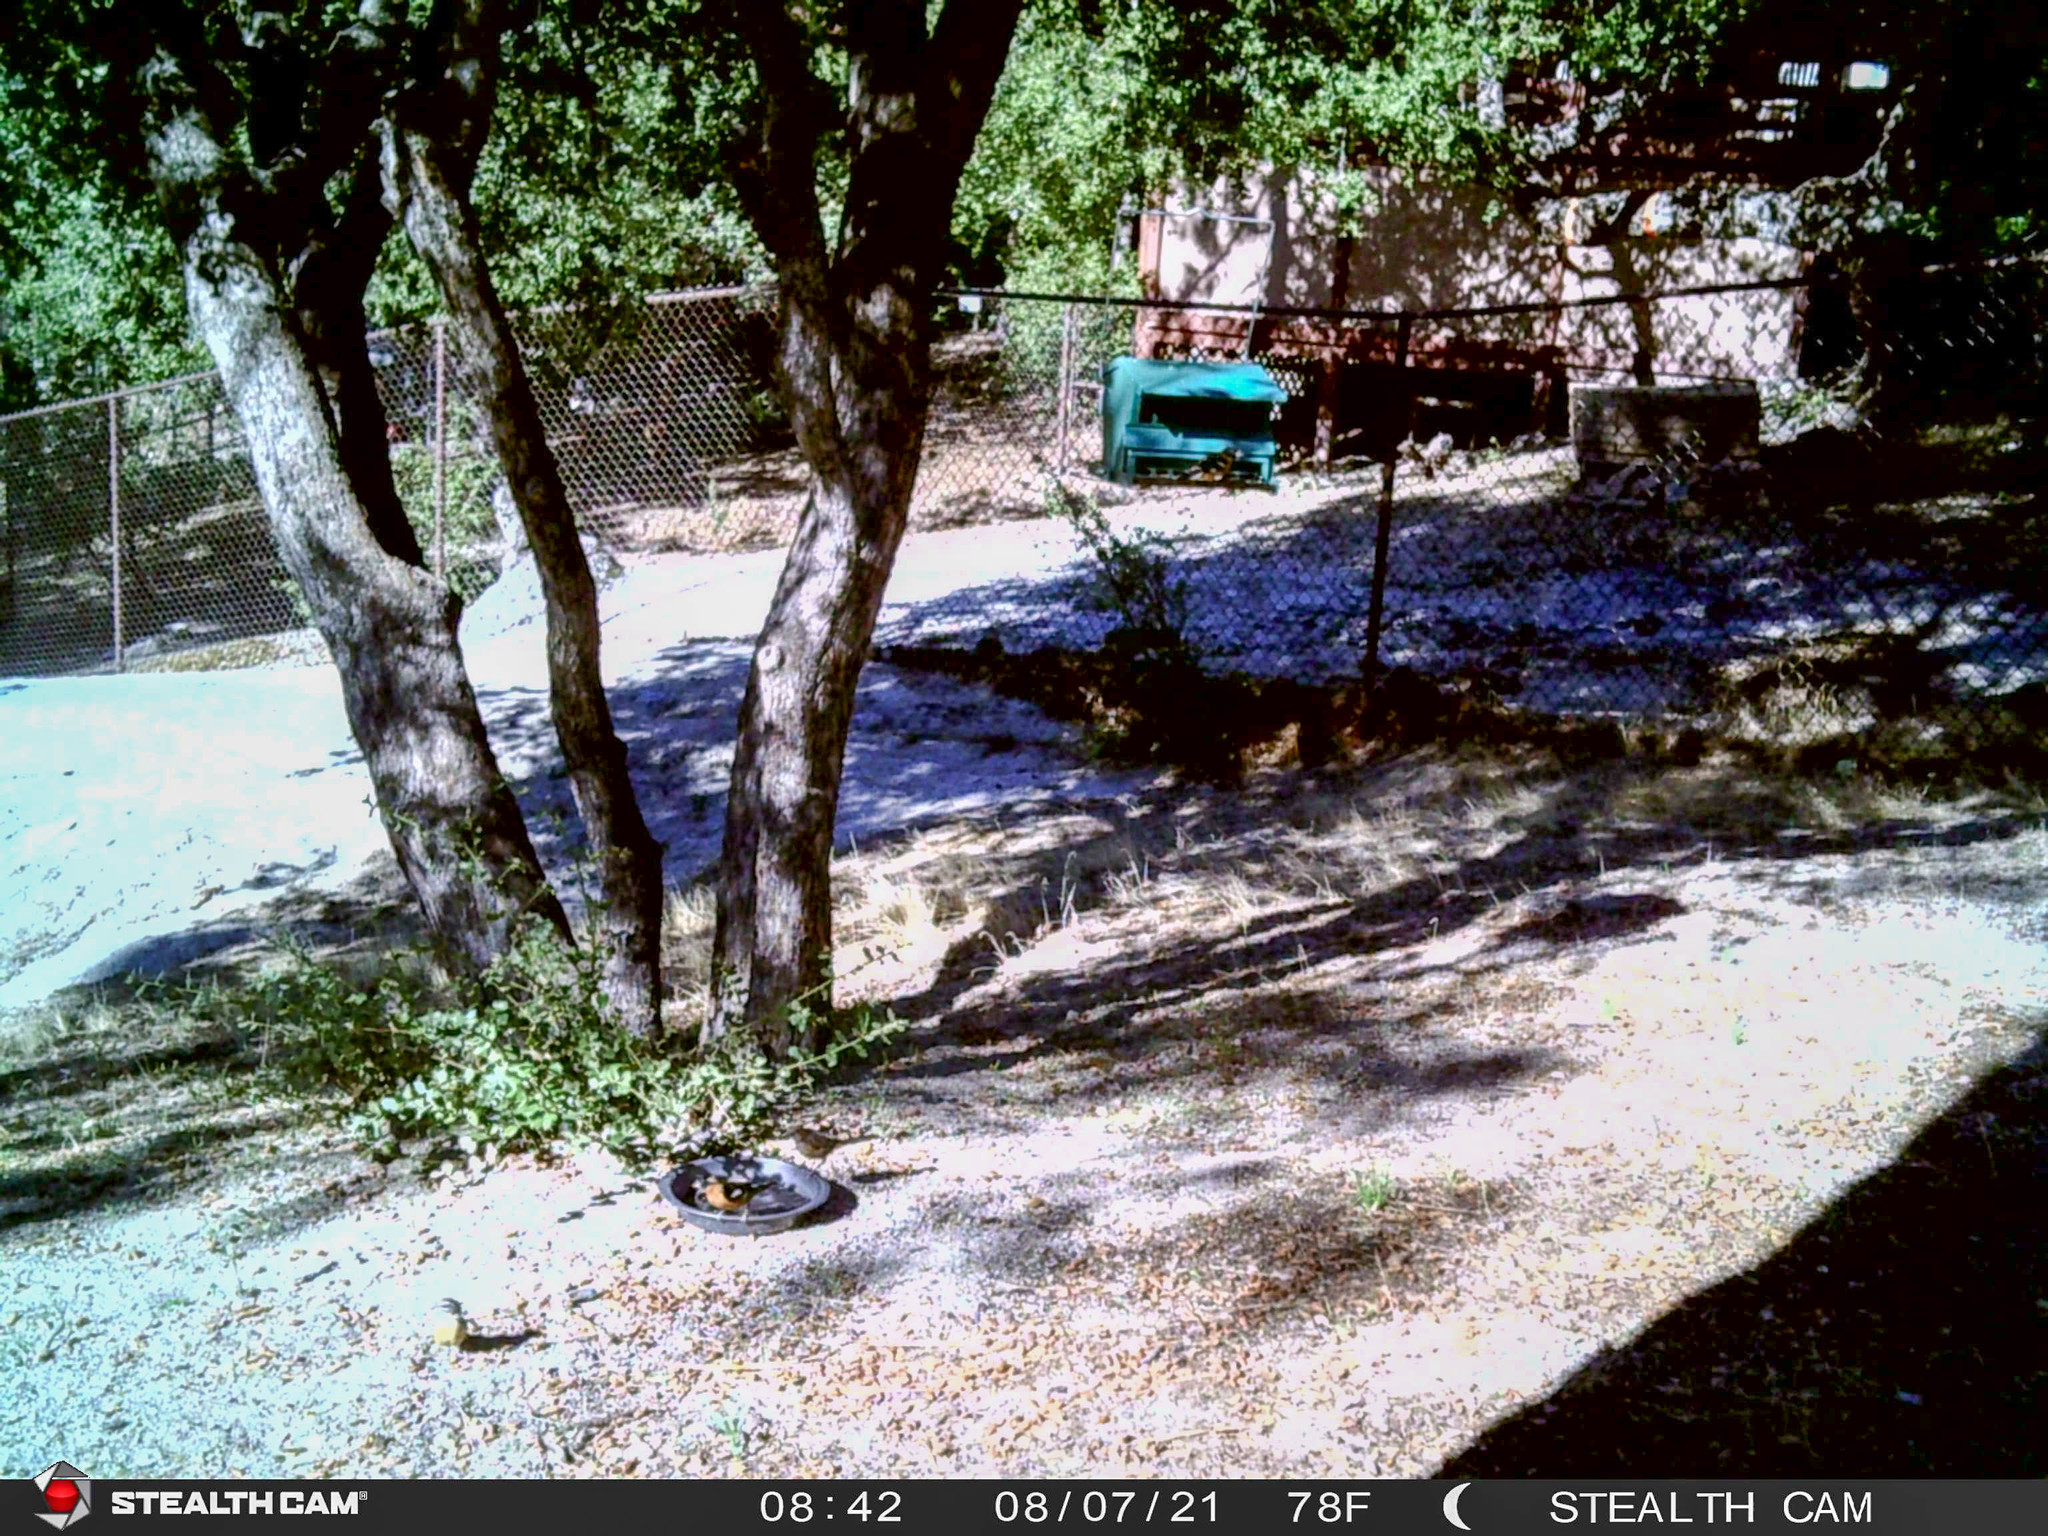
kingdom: Animalia
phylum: Chordata
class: Aves
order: Passeriformes
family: Cardinalidae
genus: Pheucticus
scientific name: Pheucticus melanocephalus
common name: Black-headed grosbeak
